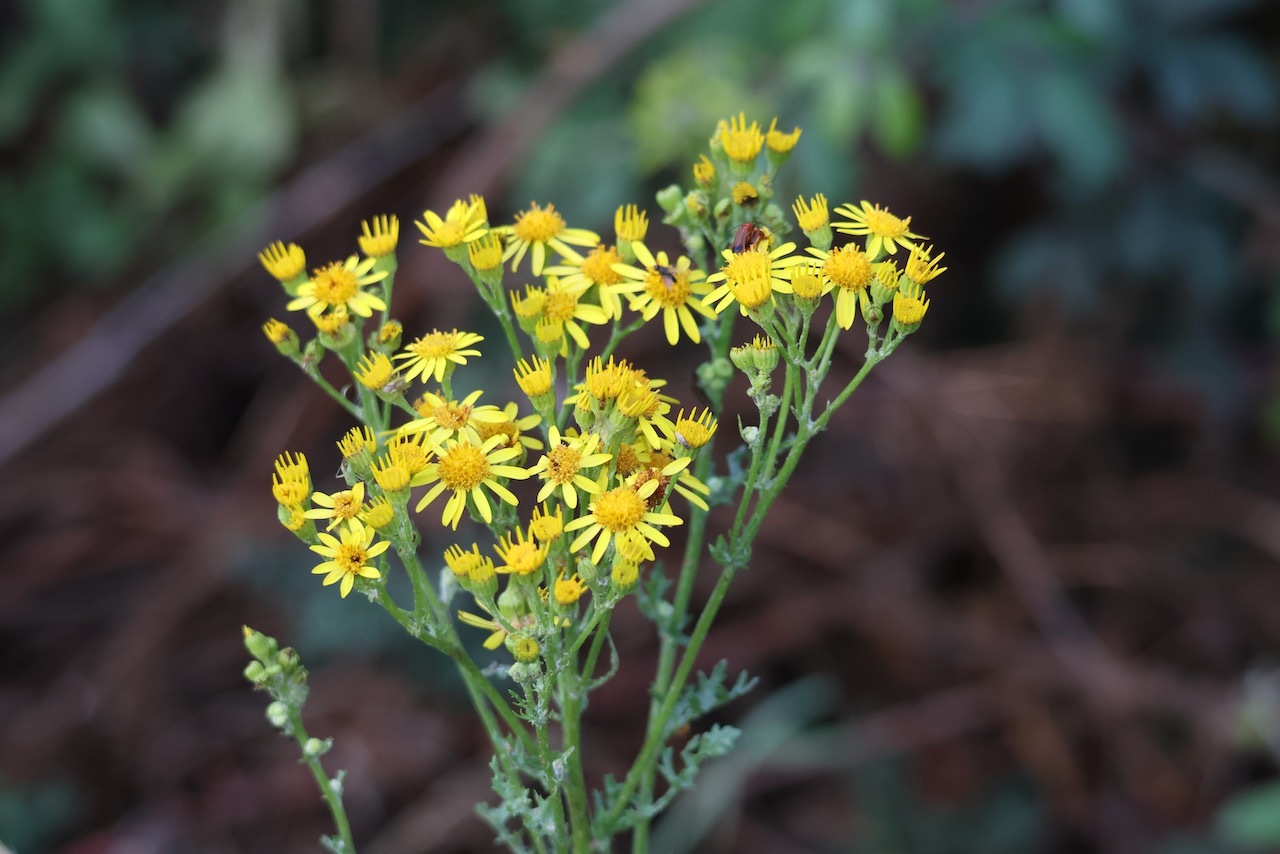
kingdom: Plantae
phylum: Tracheophyta
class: Magnoliopsida
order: Asterales
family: Asteraceae
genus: Jacobaea
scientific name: Jacobaea vulgaris
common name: Stinking willie
